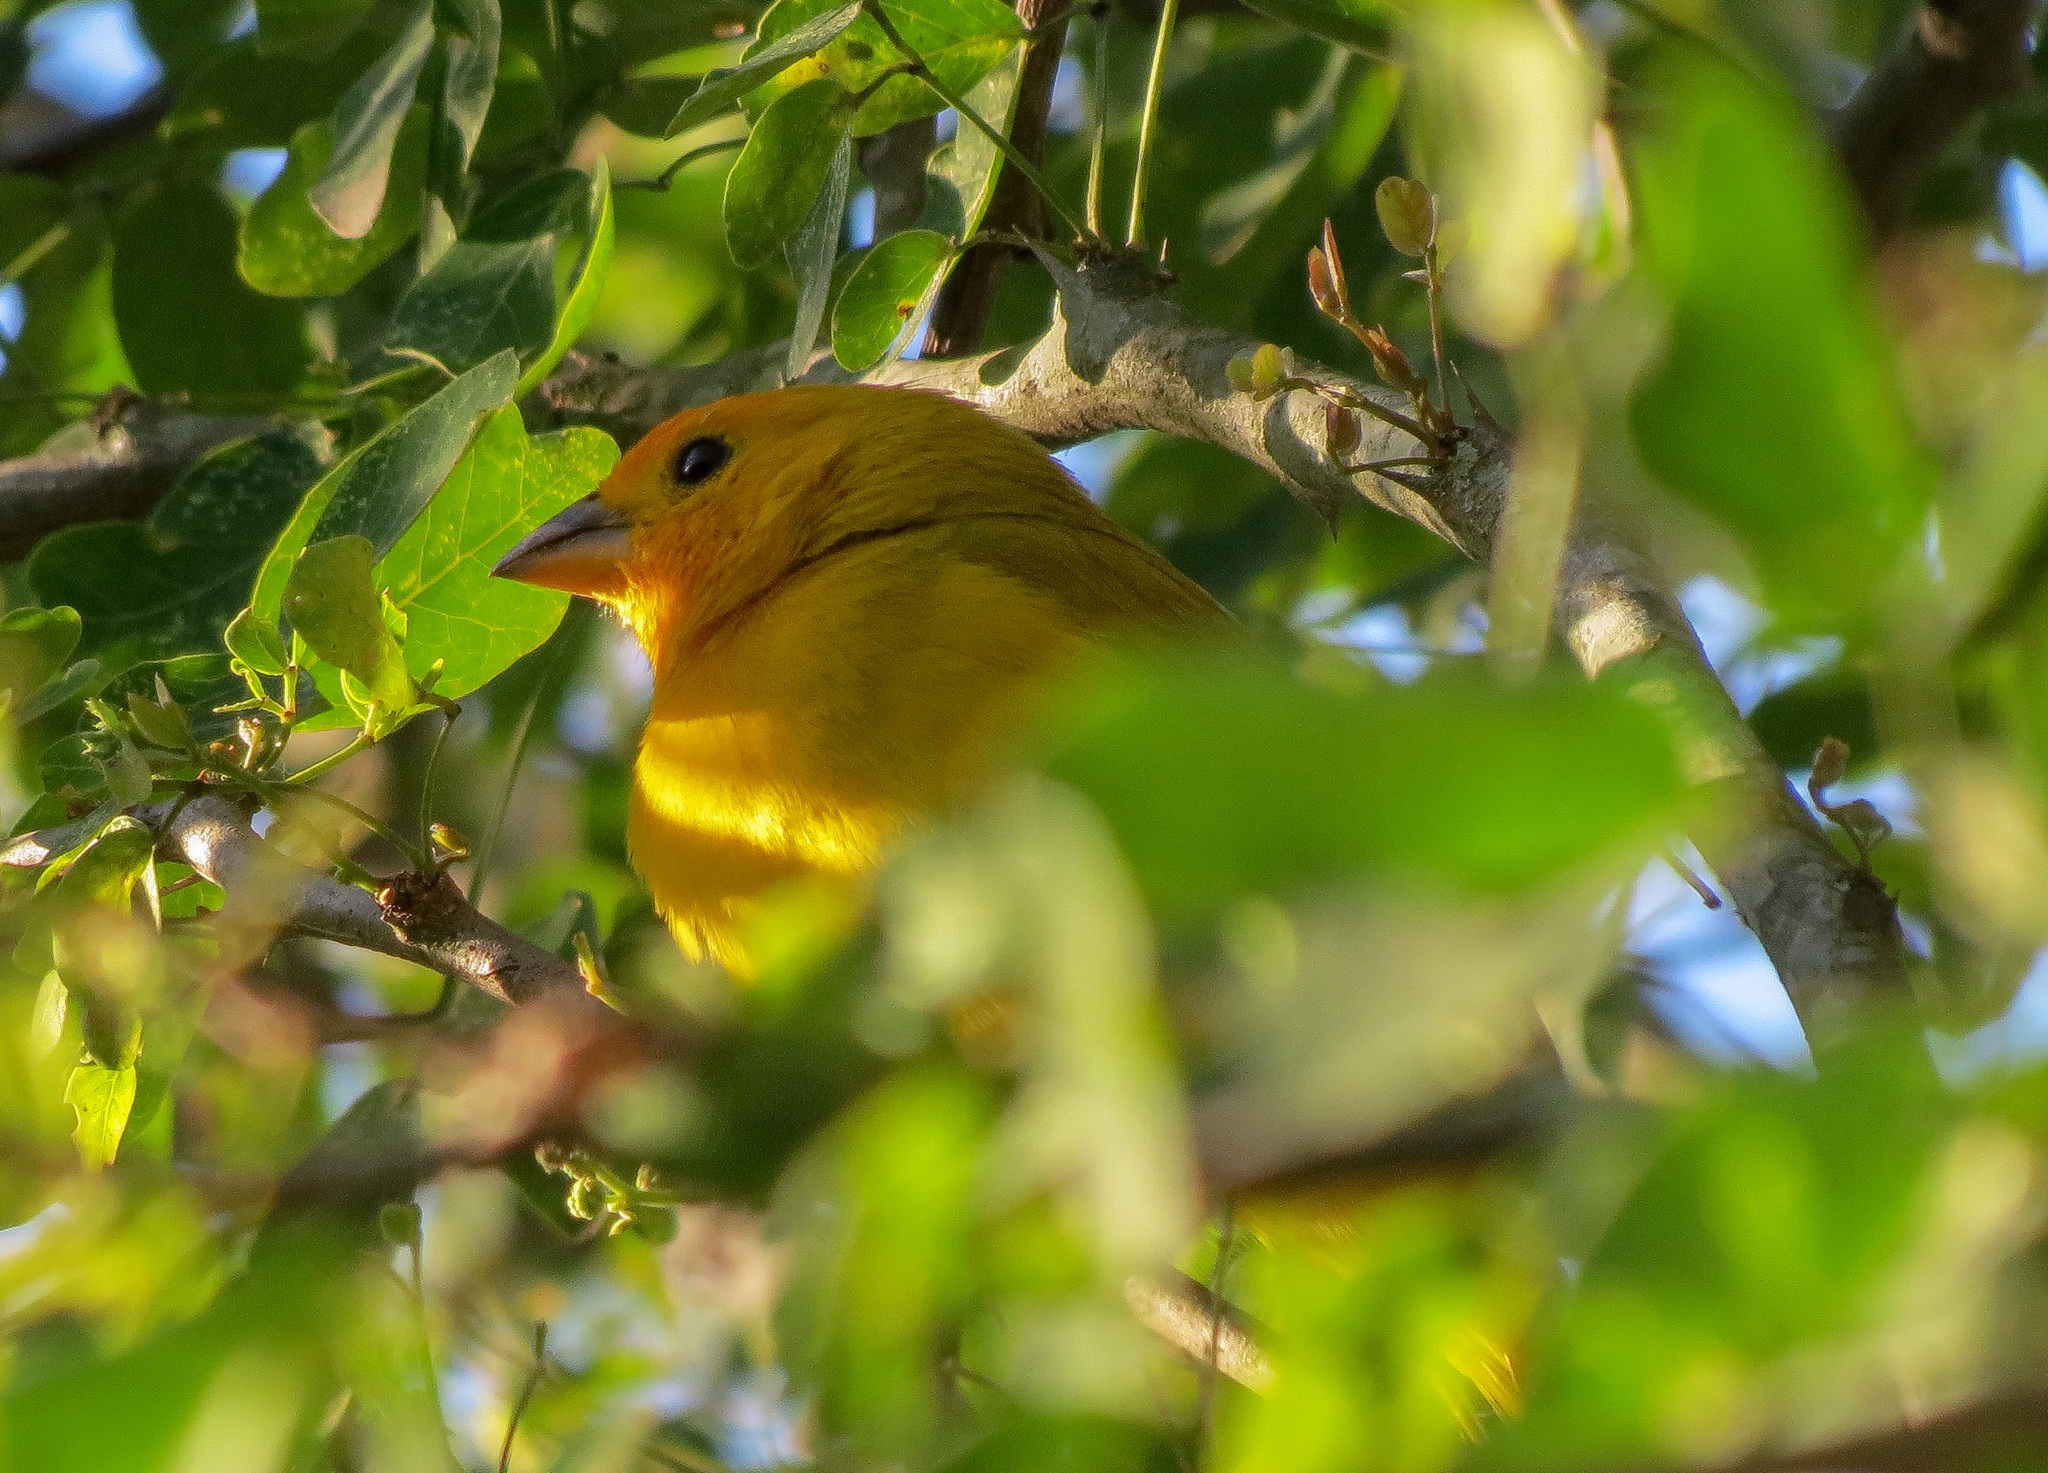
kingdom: Animalia
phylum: Chordata
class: Aves
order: Passeriformes
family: Thraupidae
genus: Sicalis
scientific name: Sicalis flaveola
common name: Saffron finch
